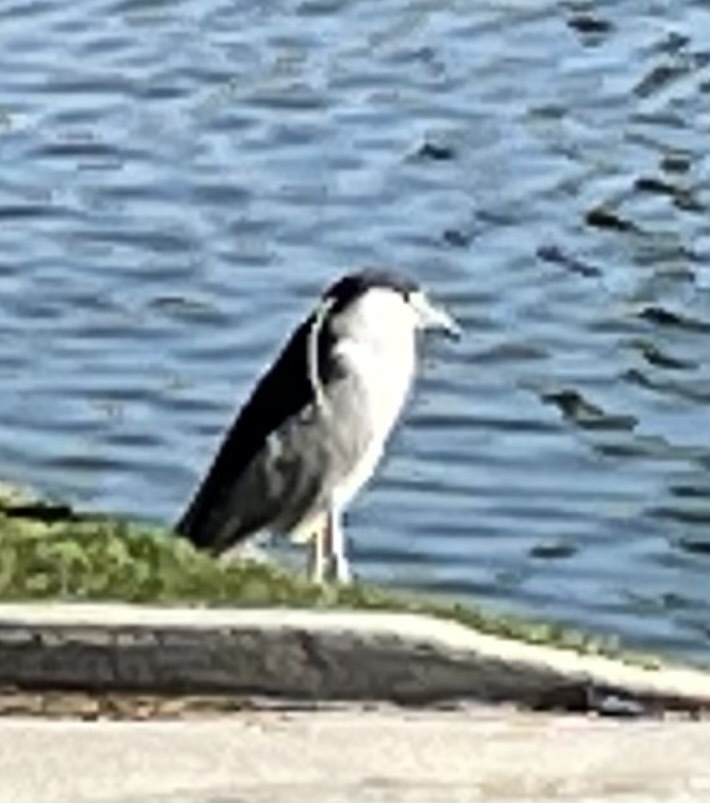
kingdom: Animalia
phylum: Chordata
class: Aves
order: Pelecaniformes
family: Ardeidae
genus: Nycticorax
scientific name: Nycticorax nycticorax
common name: Black-crowned night heron
